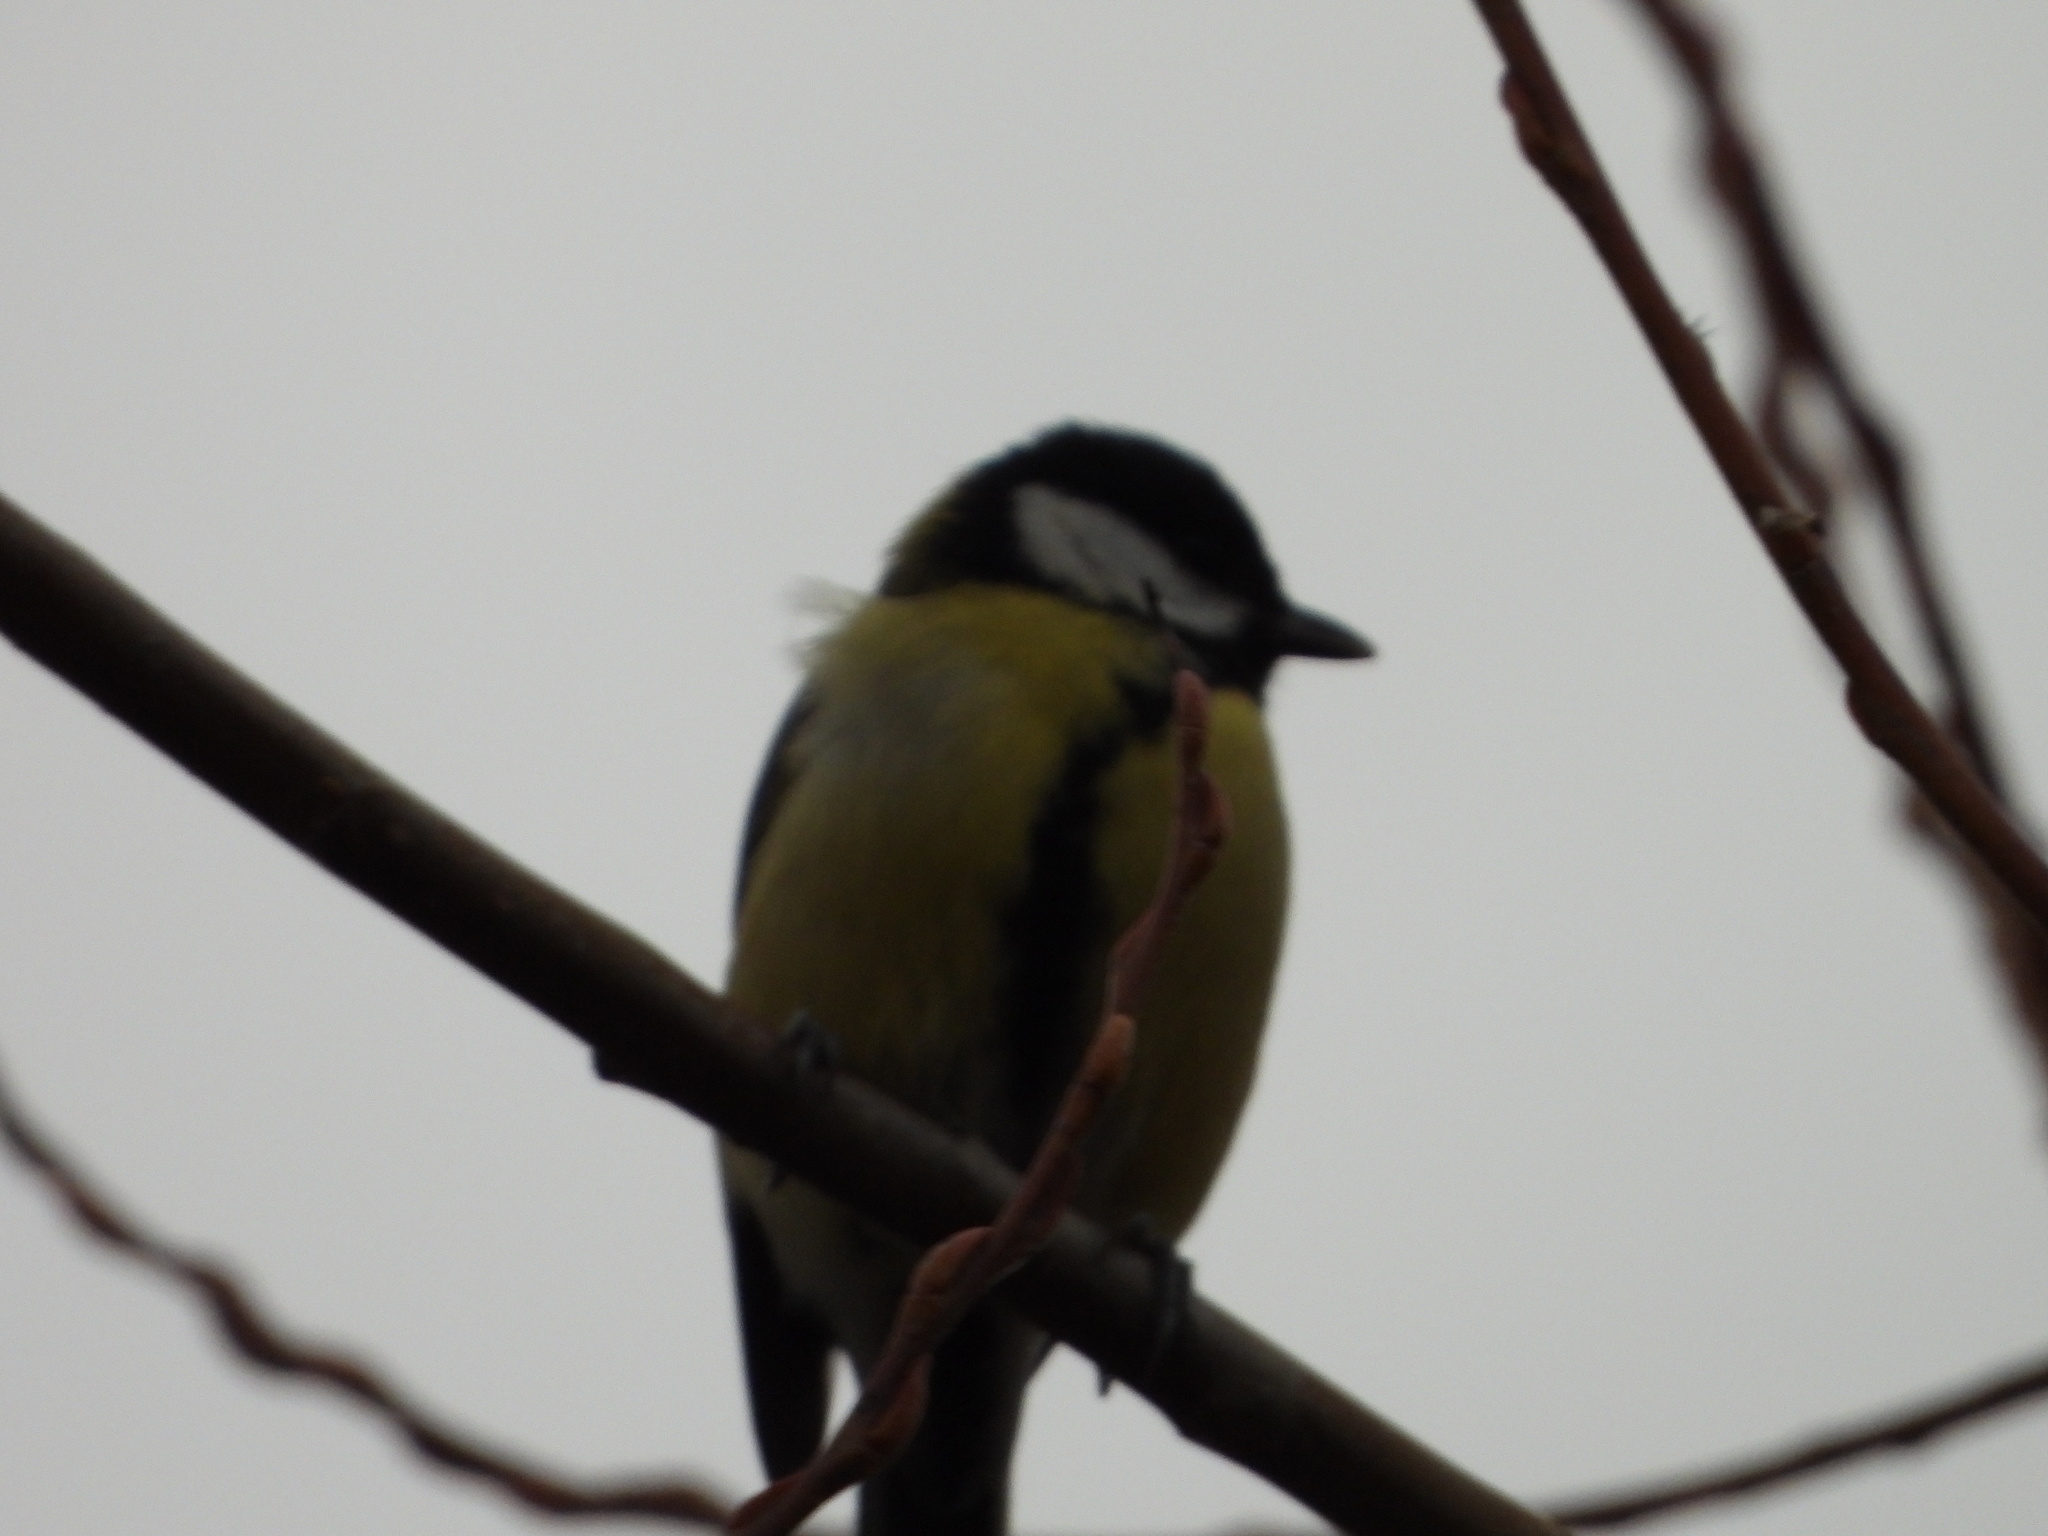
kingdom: Animalia
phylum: Chordata
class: Aves
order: Passeriformes
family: Paridae
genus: Parus
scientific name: Parus major
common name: Great tit
